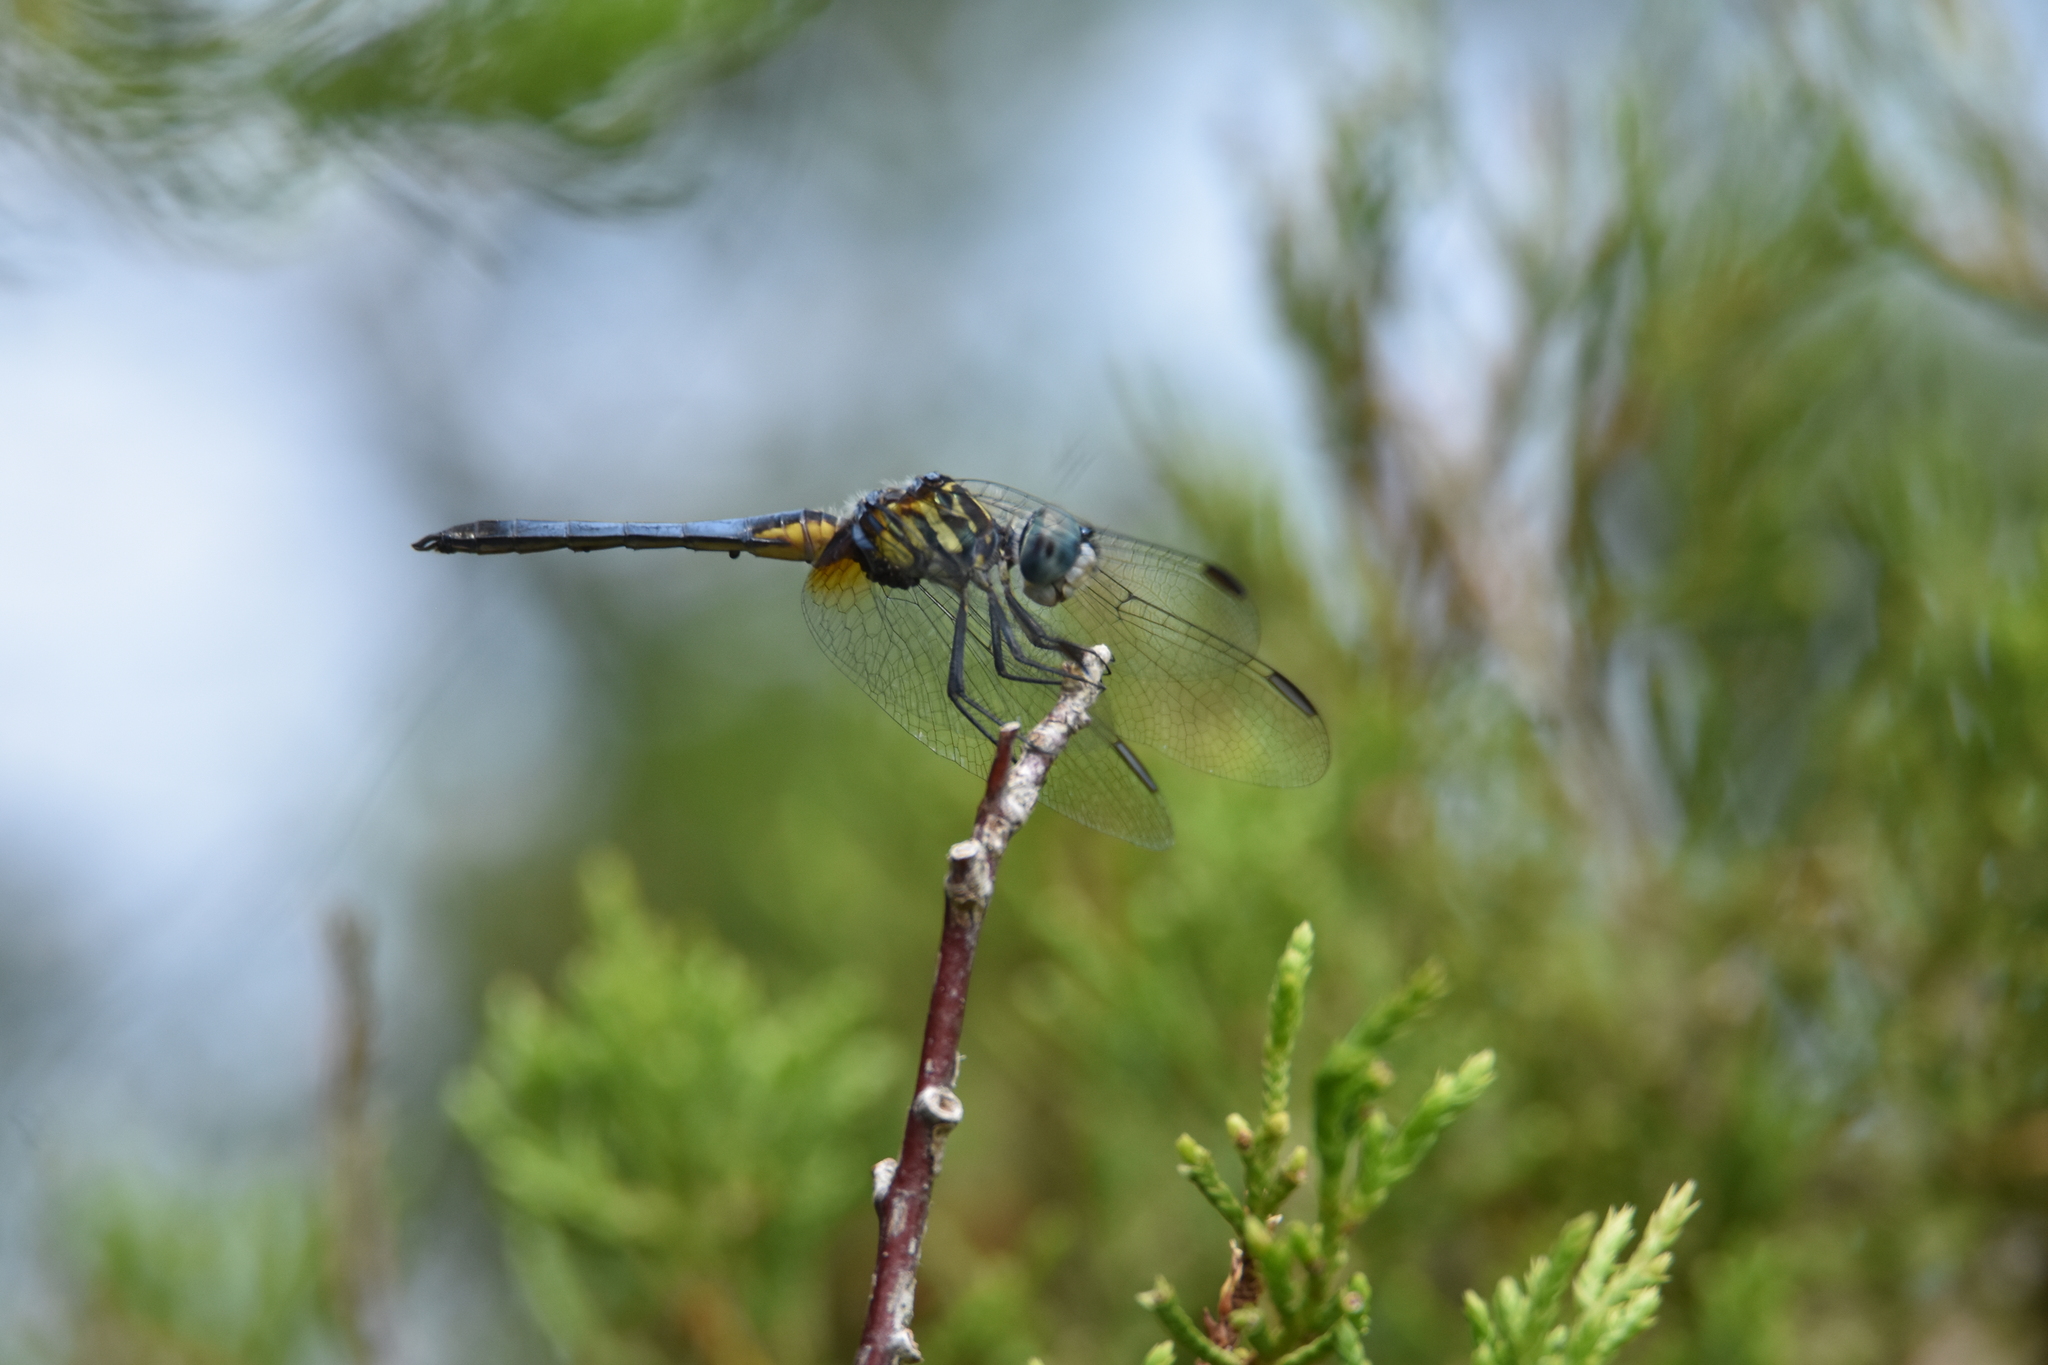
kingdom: Animalia
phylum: Arthropoda
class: Insecta
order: Odonata
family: Libellulidae
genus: Pachydiplax
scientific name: Pachydiplax longipennis
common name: Blue dasher
